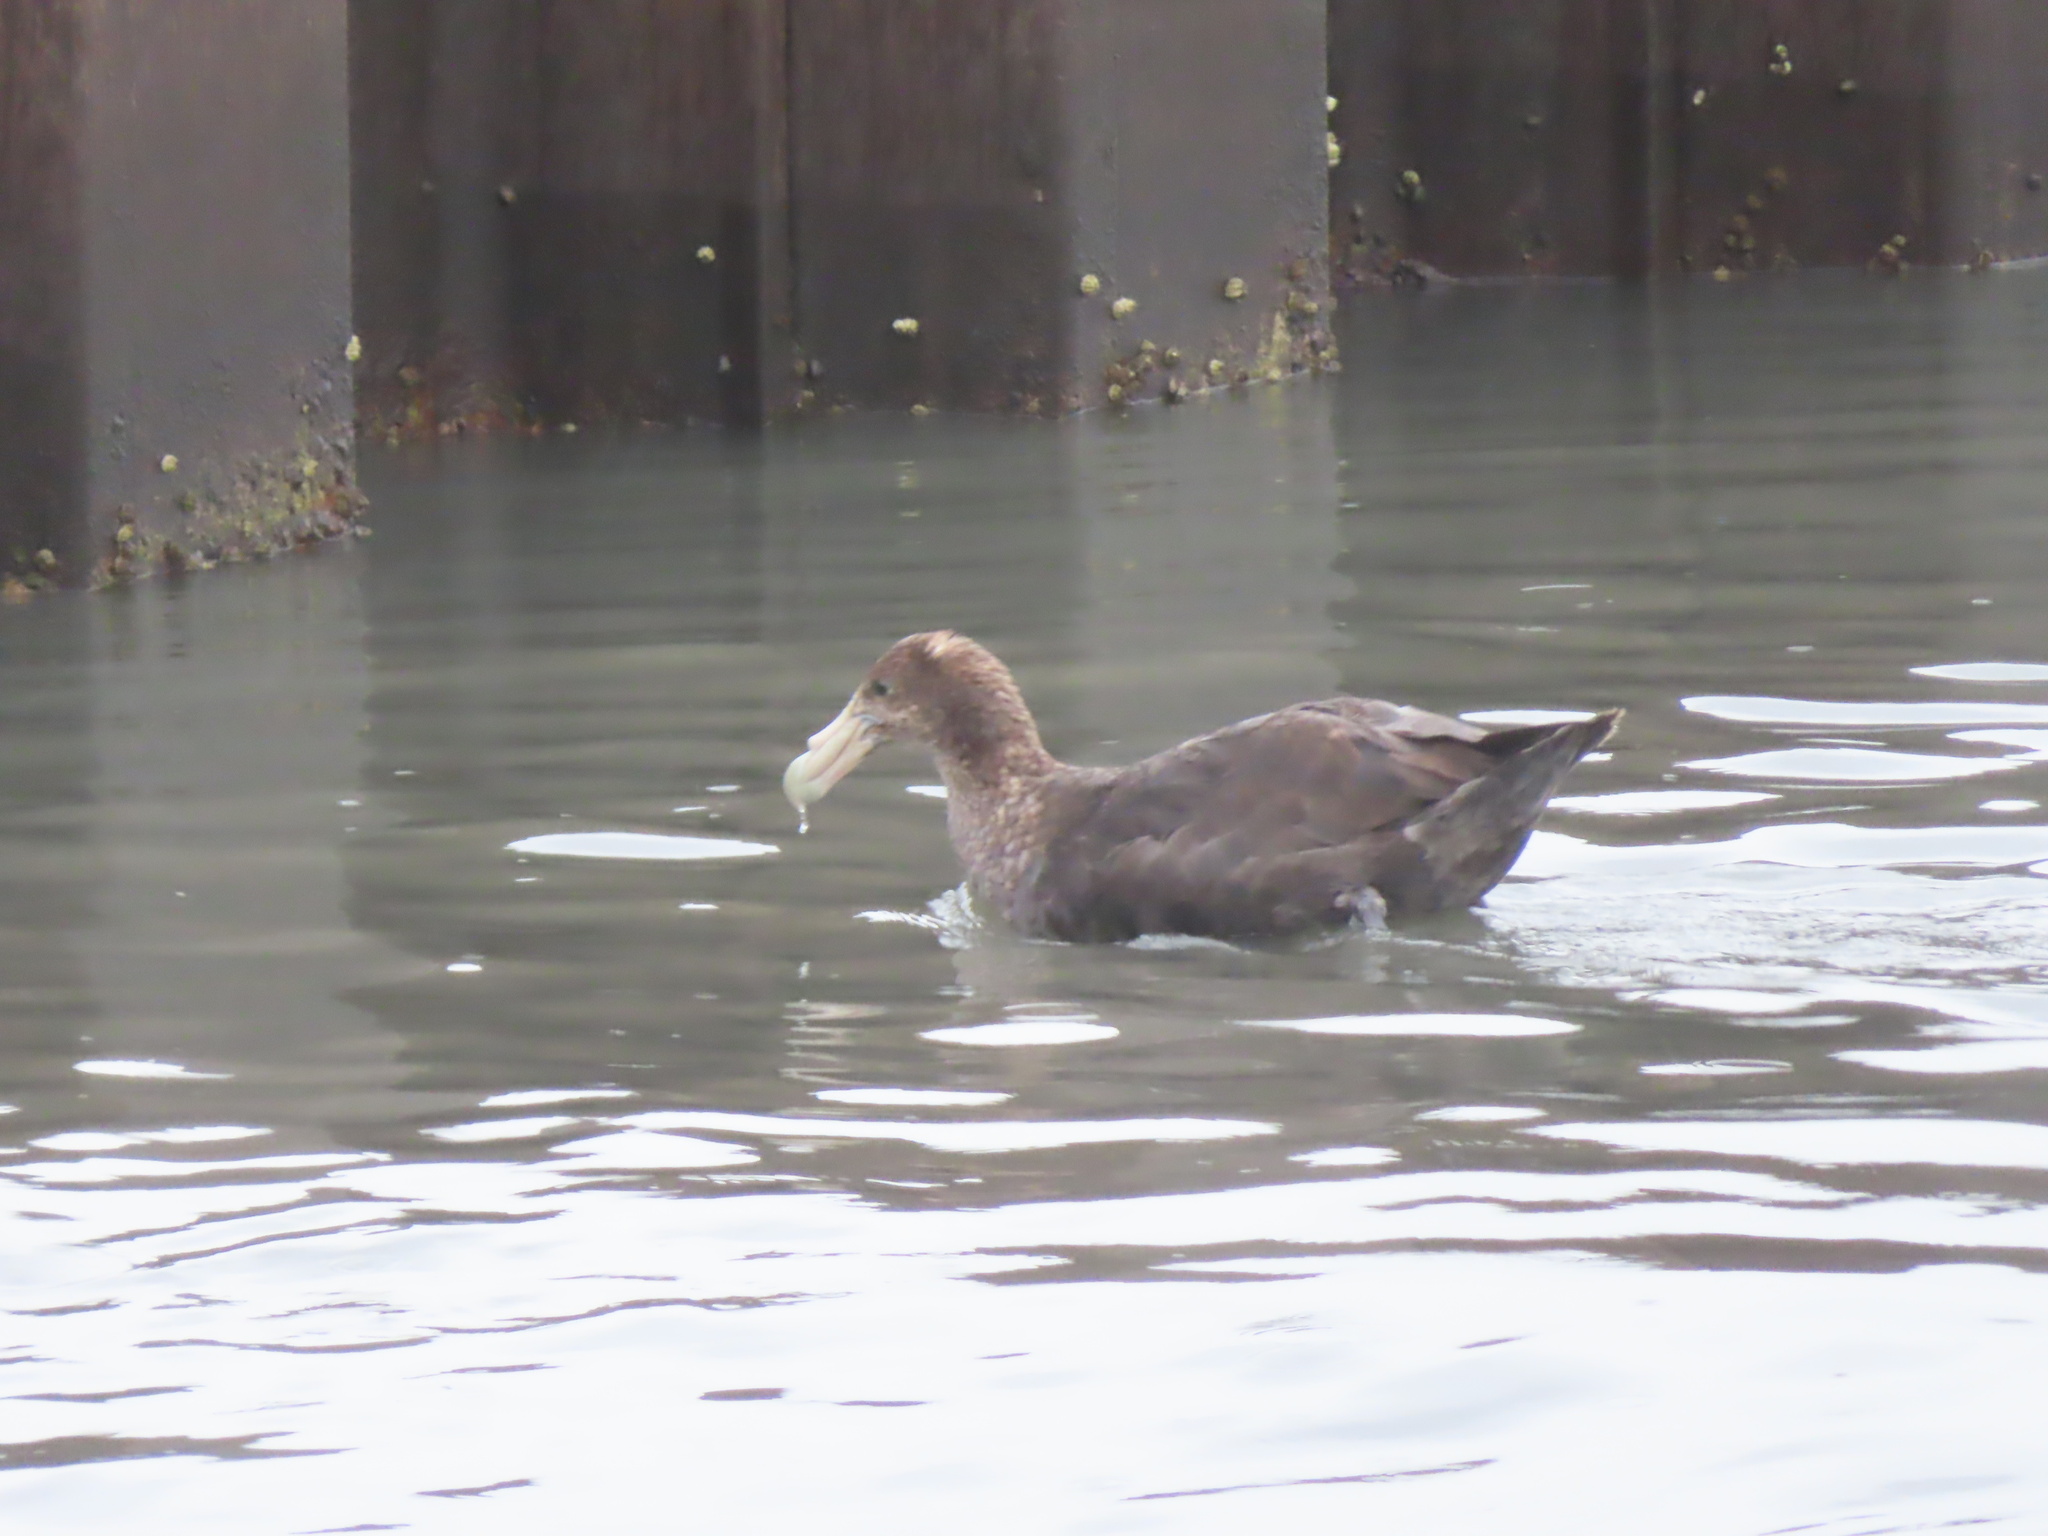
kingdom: Animalia
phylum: Chordata
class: Aves
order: Procellariiformes
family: Procellariidae
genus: Macronectes
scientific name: Macronectes giganteus
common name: Southern giant petrel
